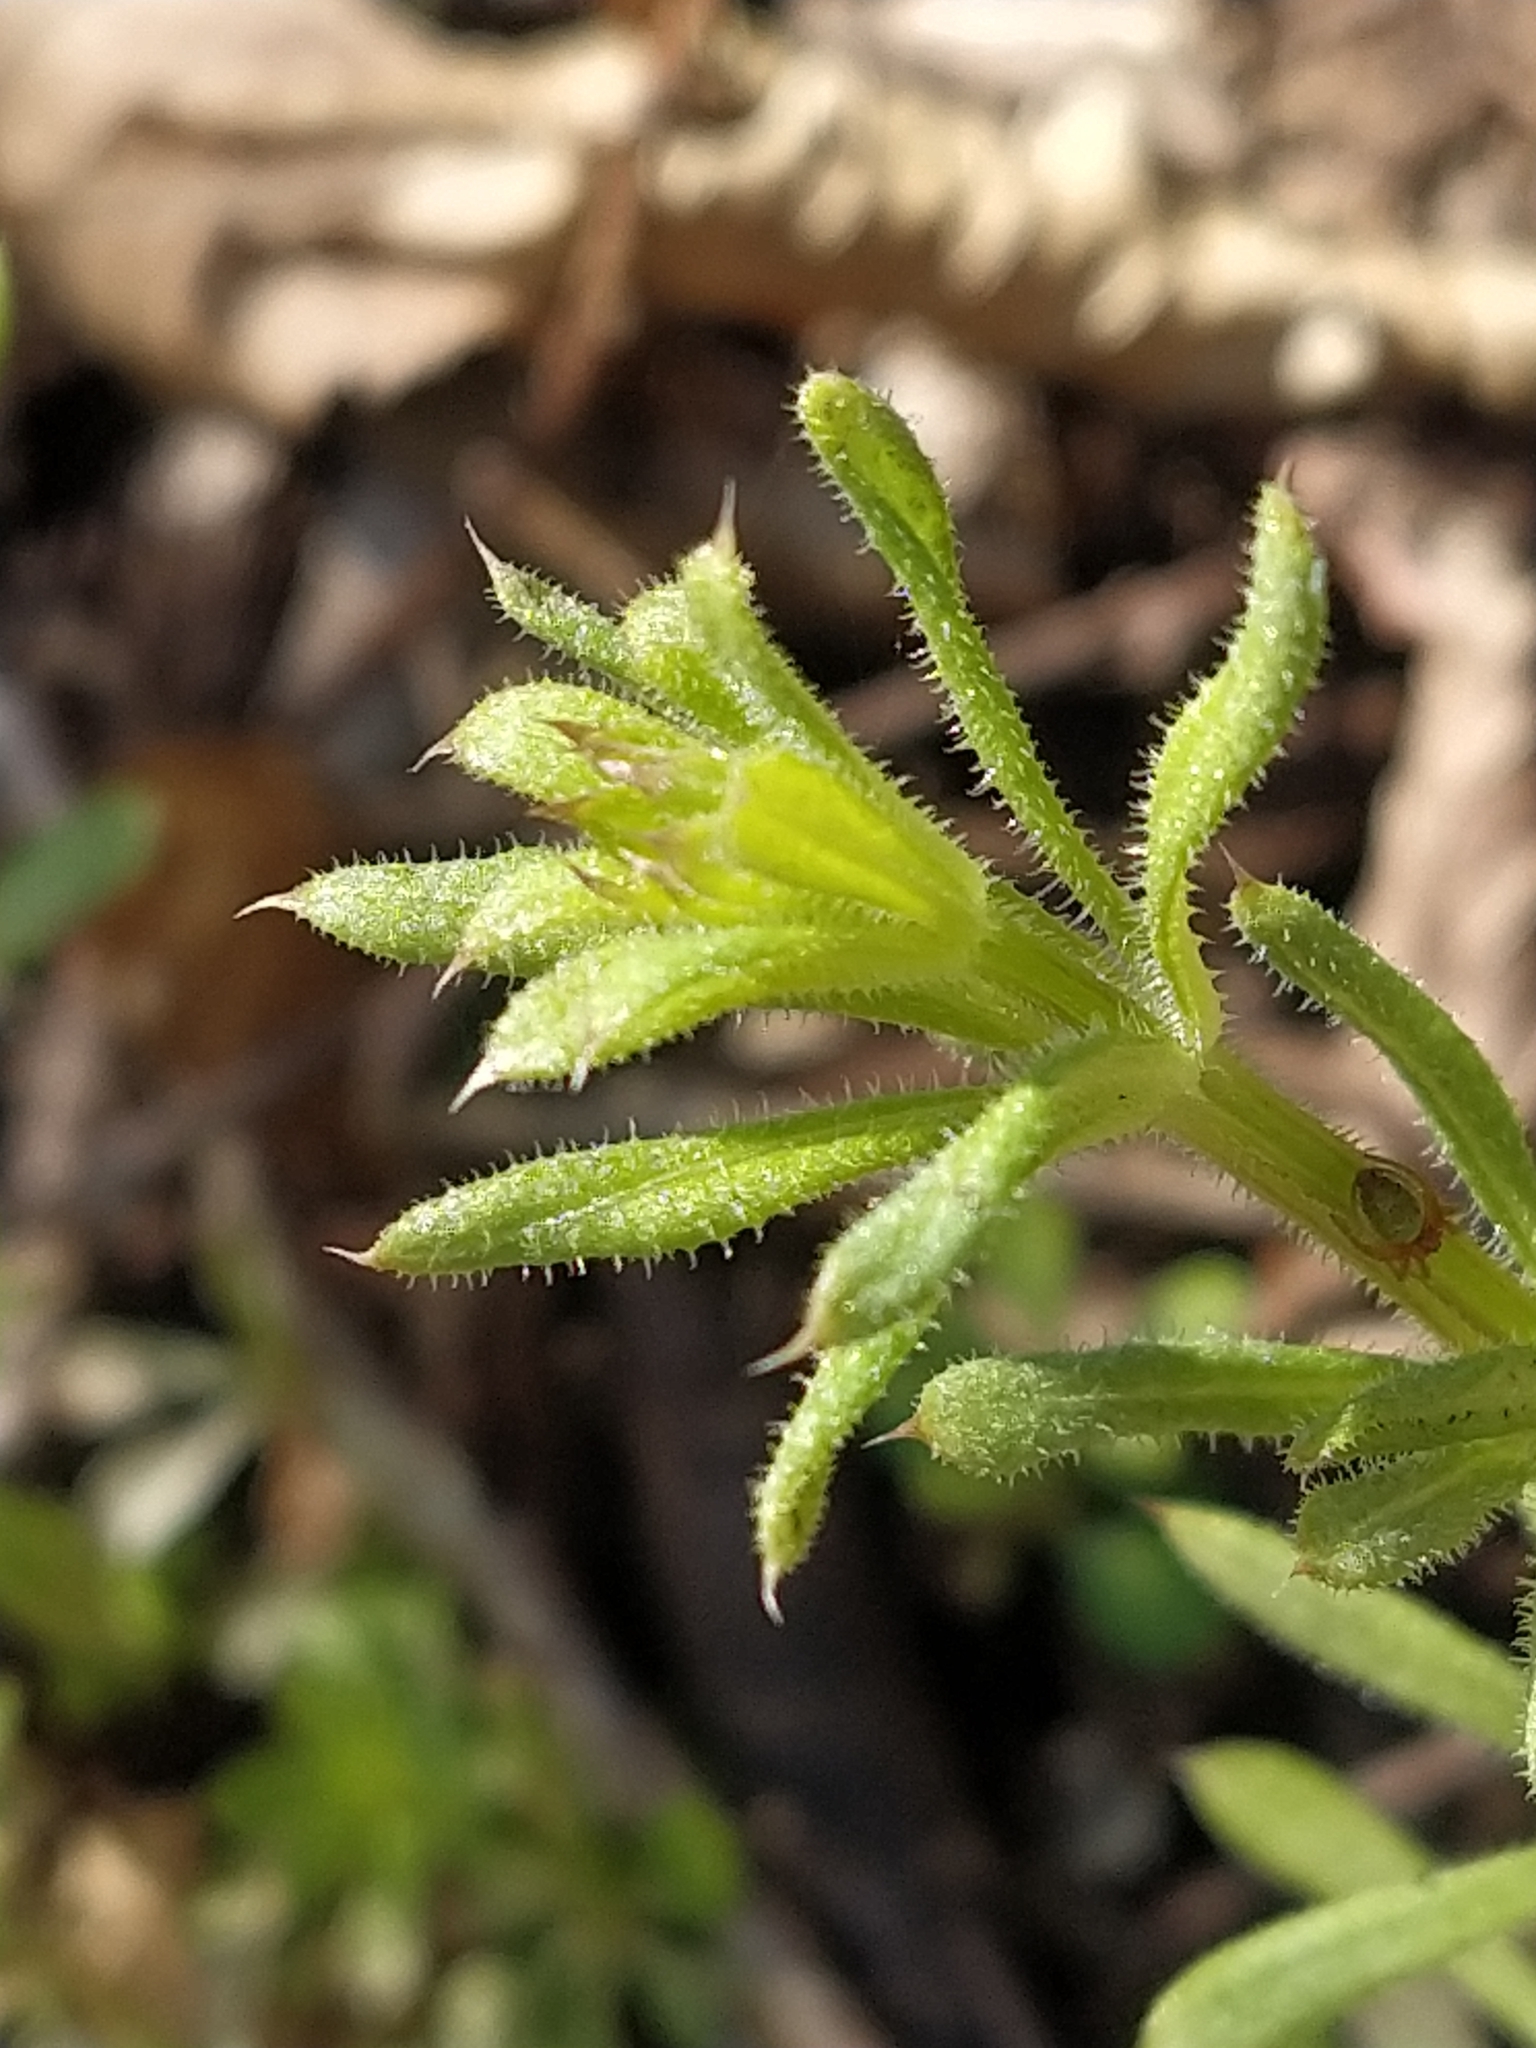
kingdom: Plantae
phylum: Tracheophyta
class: Magnoliopsida
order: Gentianales
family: Rubiaceae
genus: Galium
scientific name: Galium aparine
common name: Cleavers
